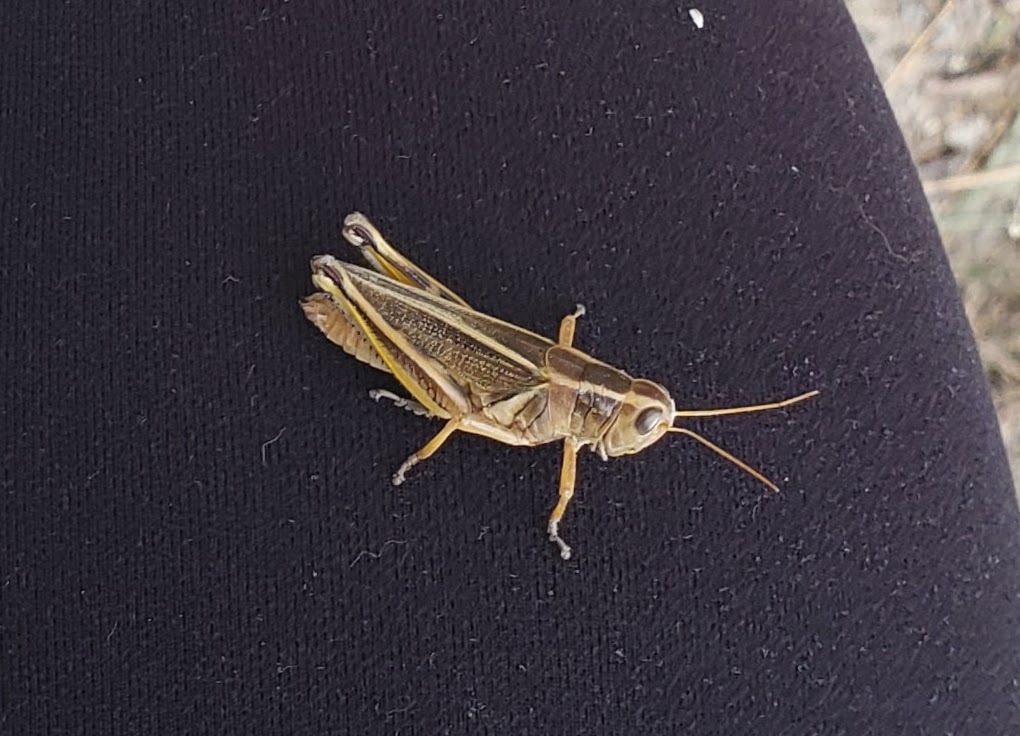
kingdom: Animalia
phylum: Arthropoda
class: Insecta
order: Orthoptera
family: Acrididae
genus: Melanoplus
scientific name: Melanoplus bivittatus
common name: Two-striped grasshopper
